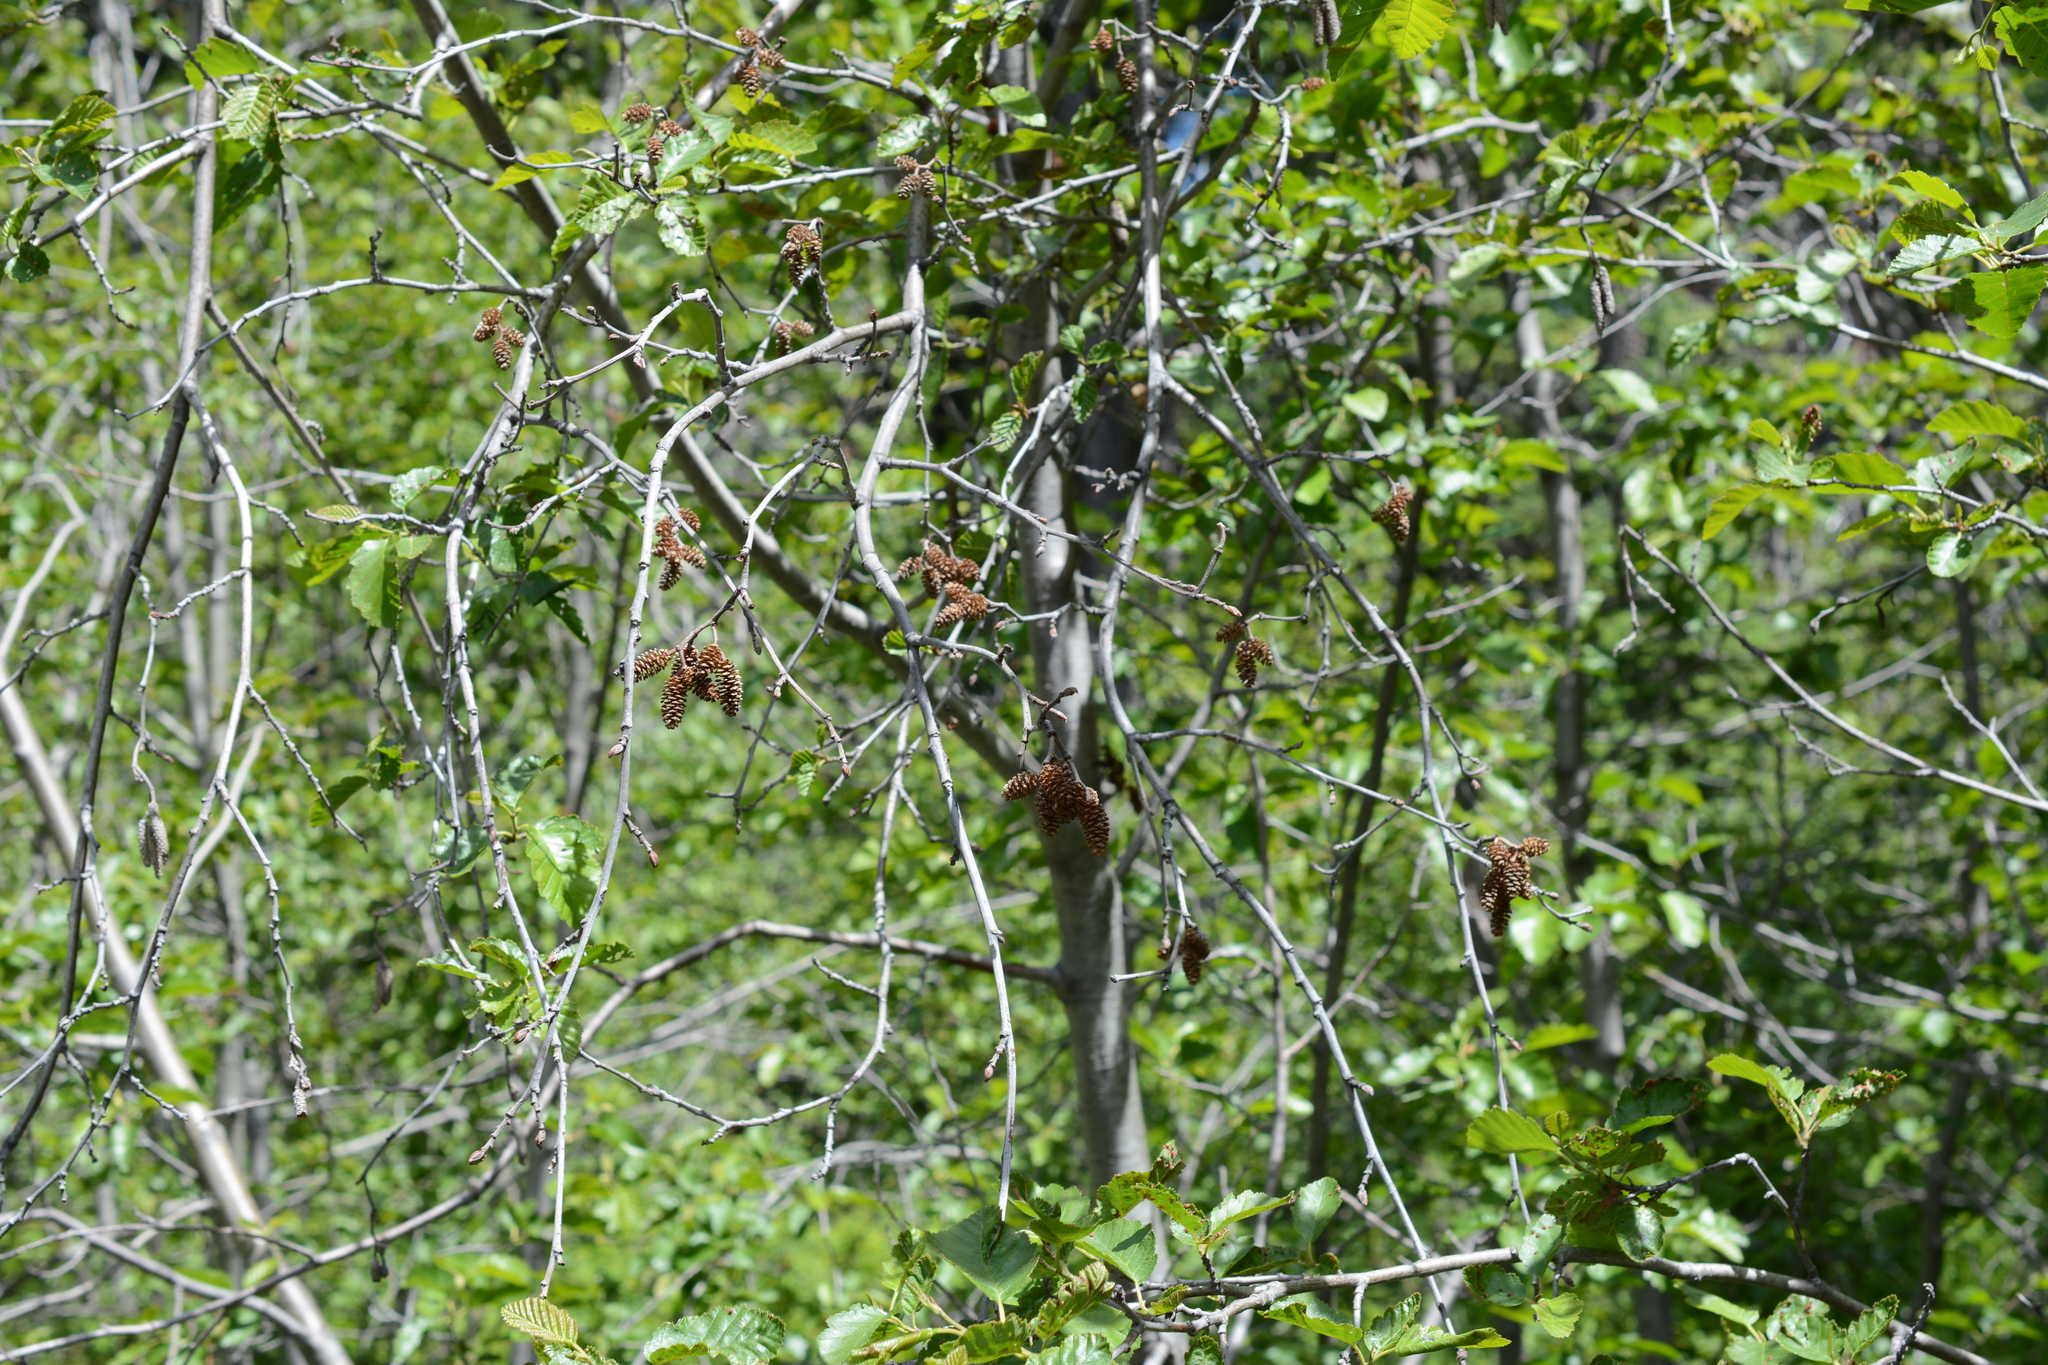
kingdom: Plantae
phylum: Tracheophyta
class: Magnoliopsida
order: Fagales
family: Betulaceae
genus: Alnus
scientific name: Alnus incana
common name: Grey alder
